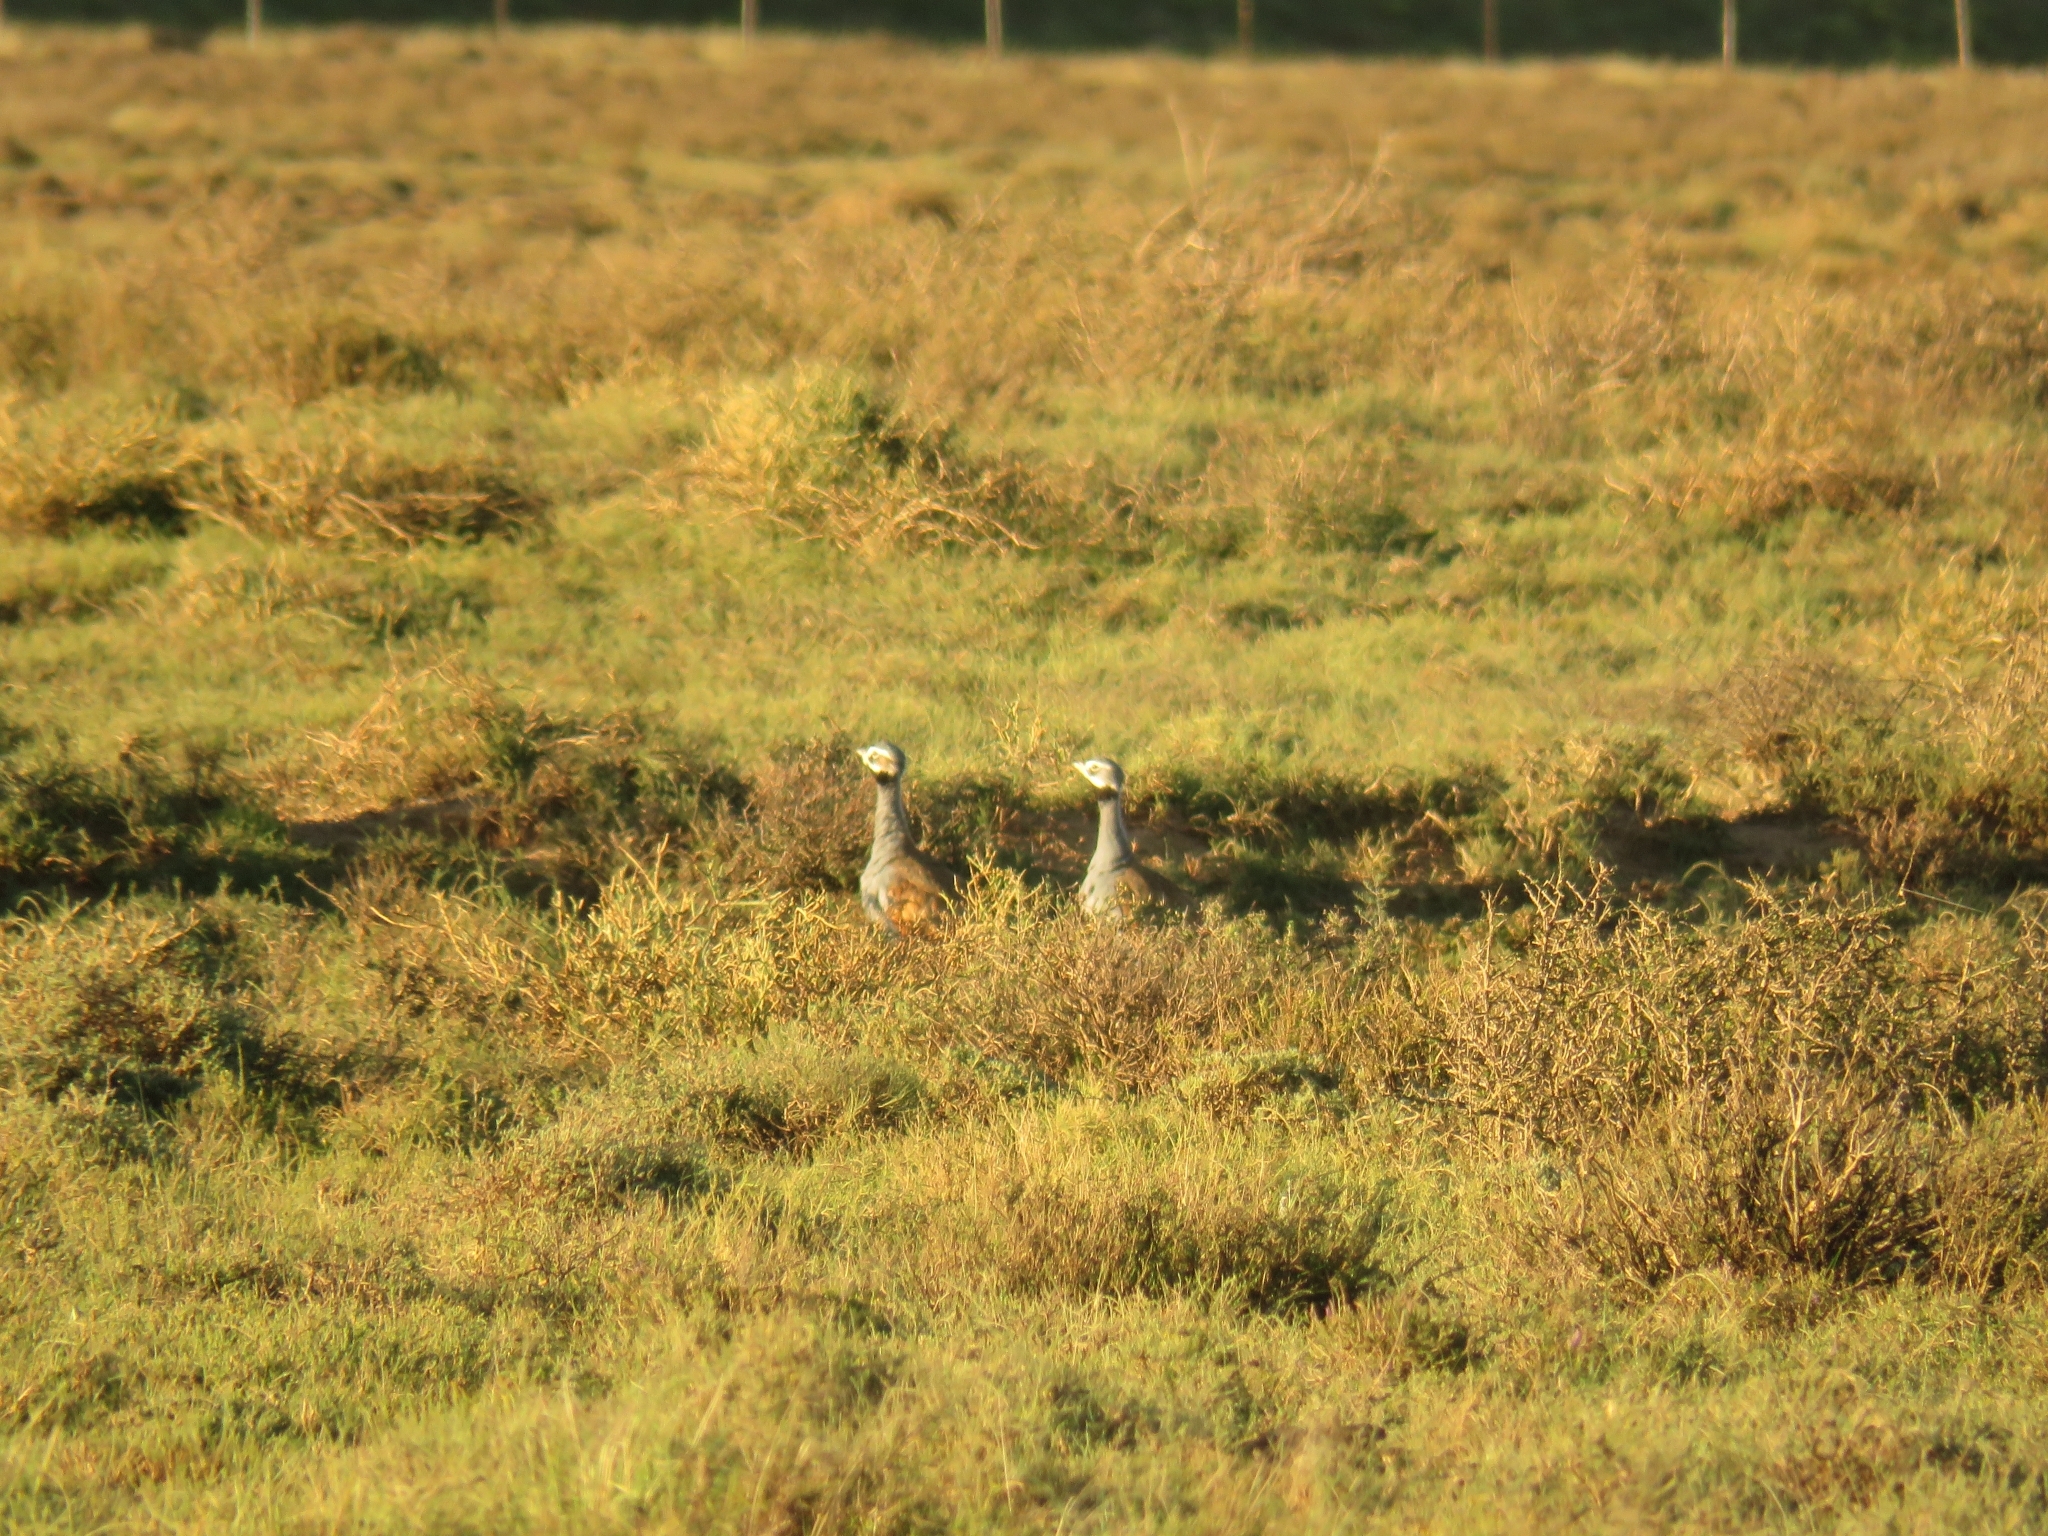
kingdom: Animalia
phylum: Chordata
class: Aves
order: Otidiformes
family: Otididae
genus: Eupodotis
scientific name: Eupodotis caerulescens
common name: Blue korhaan
